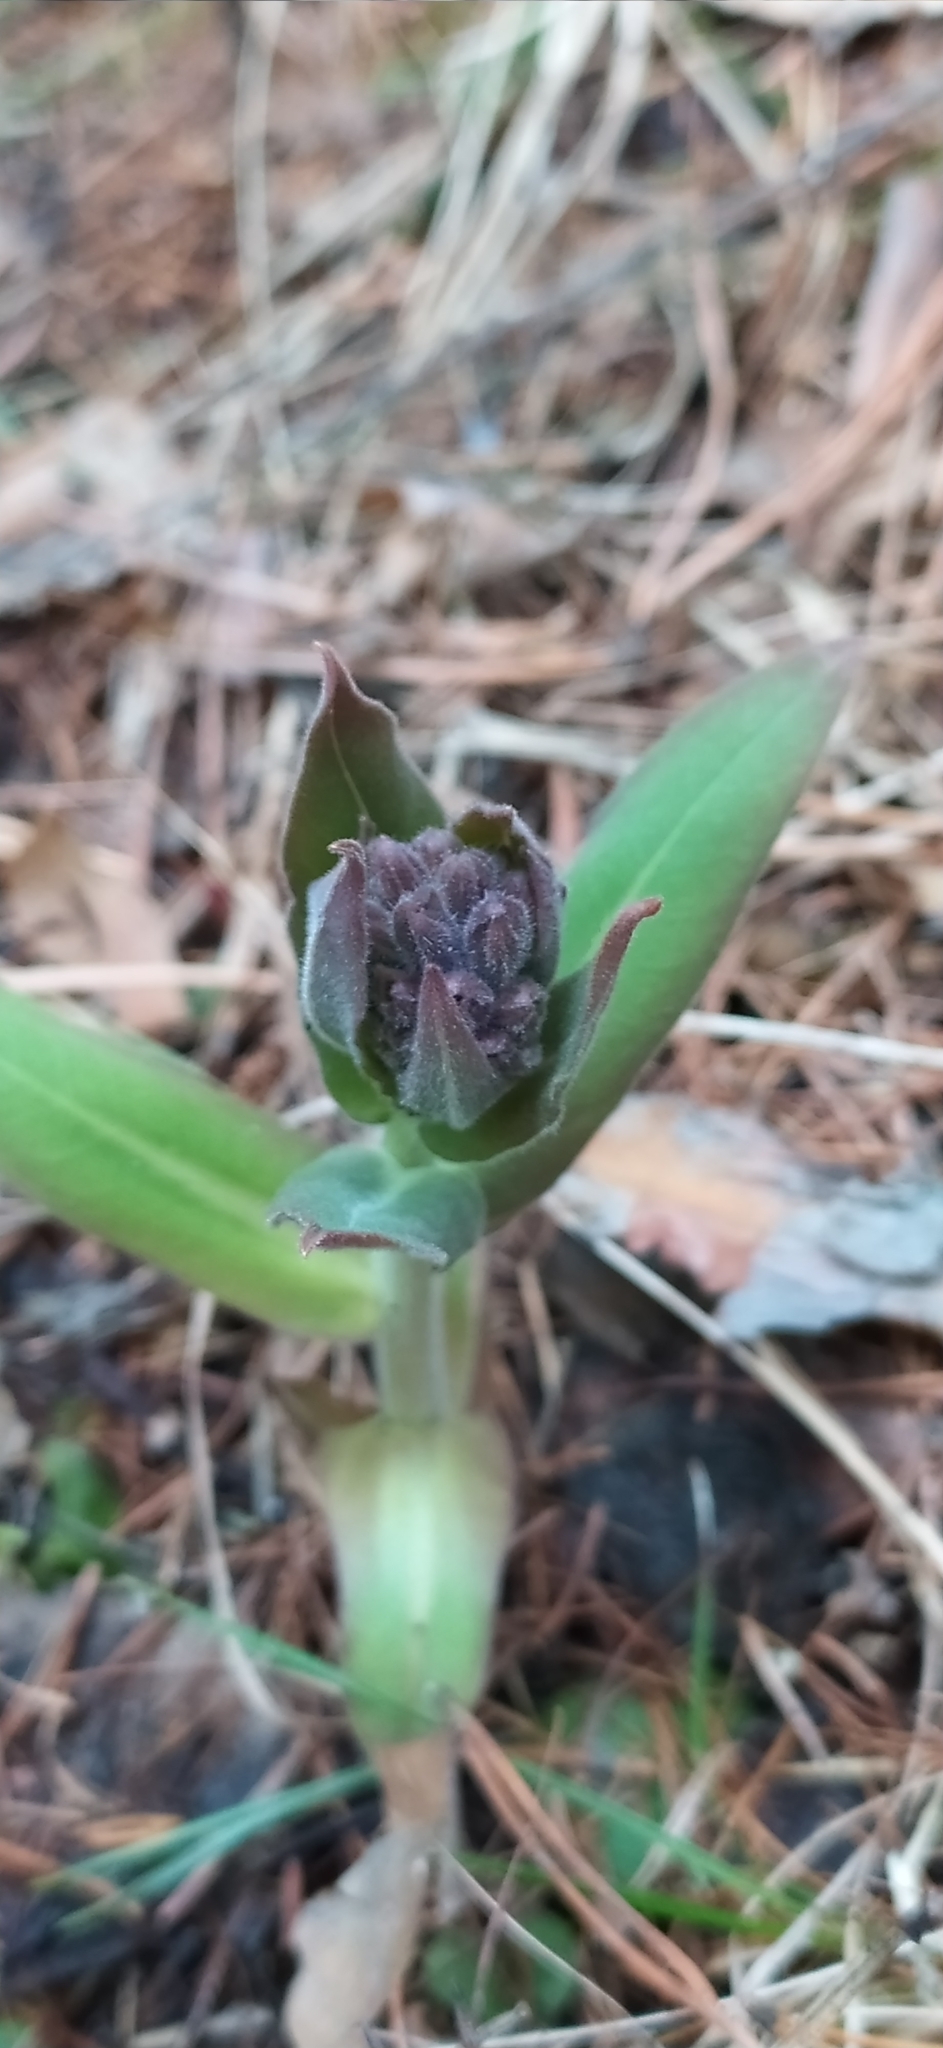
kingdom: Plantae
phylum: Tracheophyta
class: Magnoliopsida
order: Boraginales
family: Boraginaceae
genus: Pulmonaria
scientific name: Pulmonaria mollis
